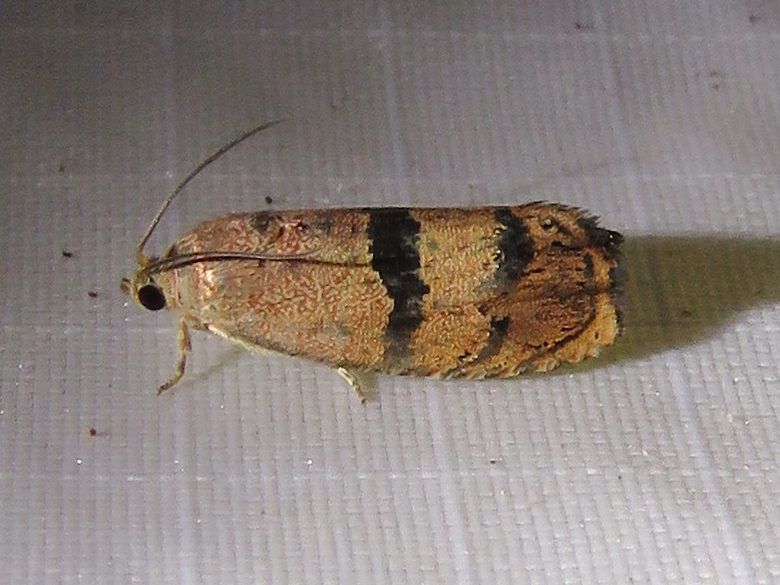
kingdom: Animalia
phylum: Arthropoda
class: Insecta
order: Lepidoptera
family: Tortricidae
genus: Cydia
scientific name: Cydia latiferreana
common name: Filbertworm moth
